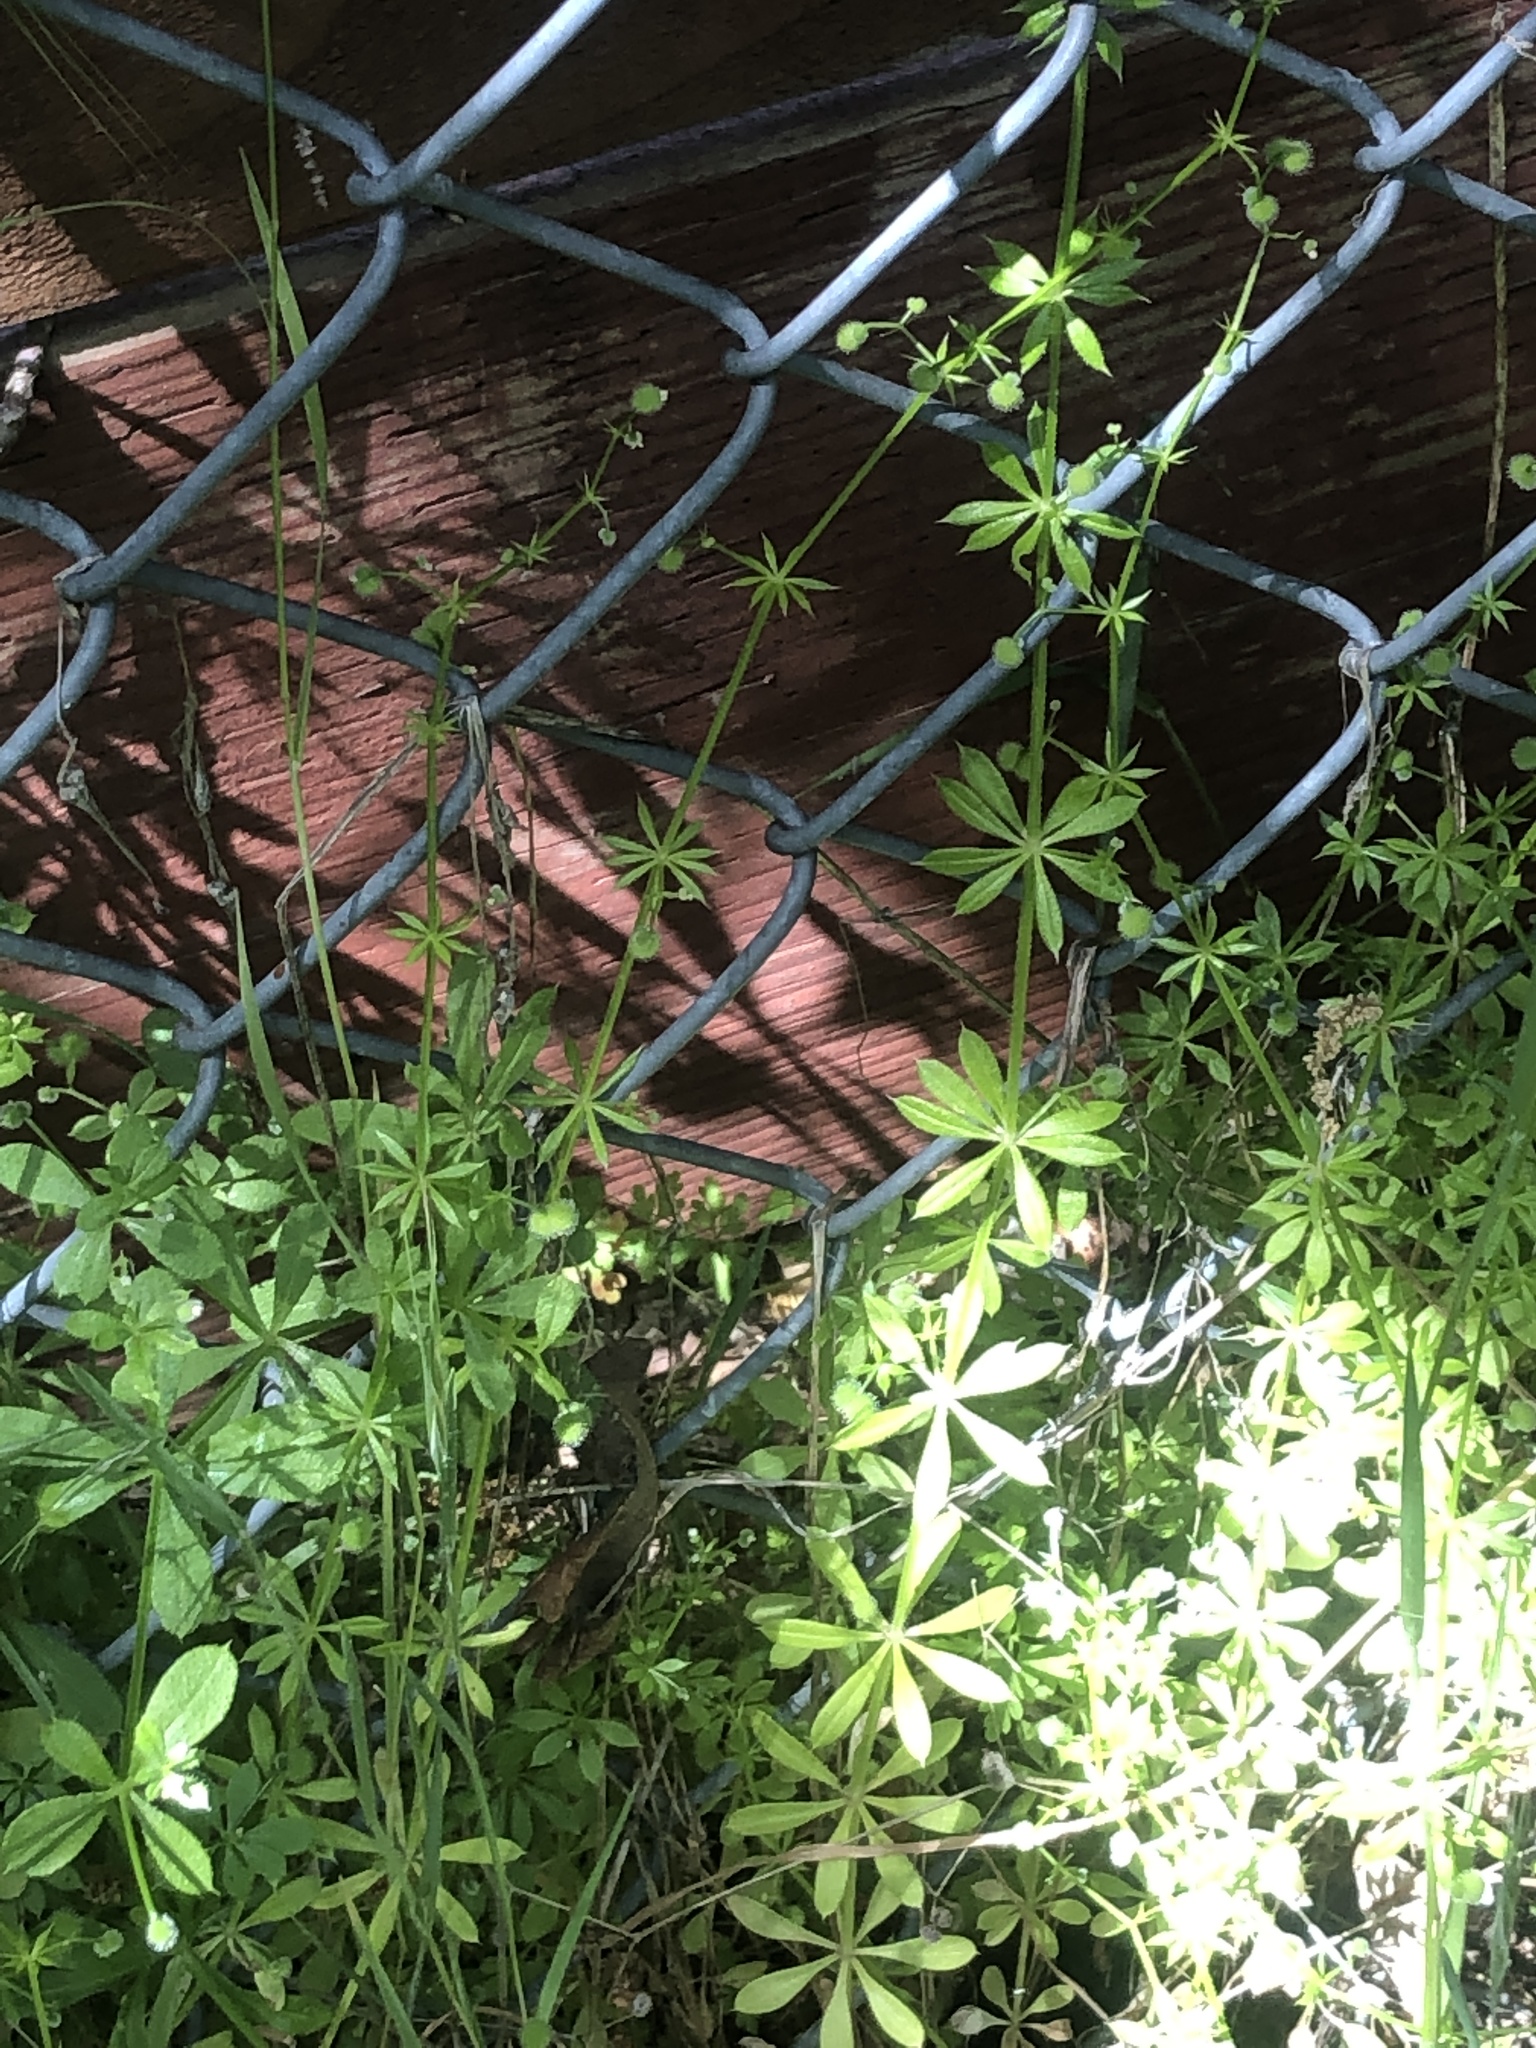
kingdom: Plantae
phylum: Tracheophyta
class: Magnoliopsida
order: Gentianales
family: Rubiaceae
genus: Galium
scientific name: Galium aparine
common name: Cleavers
